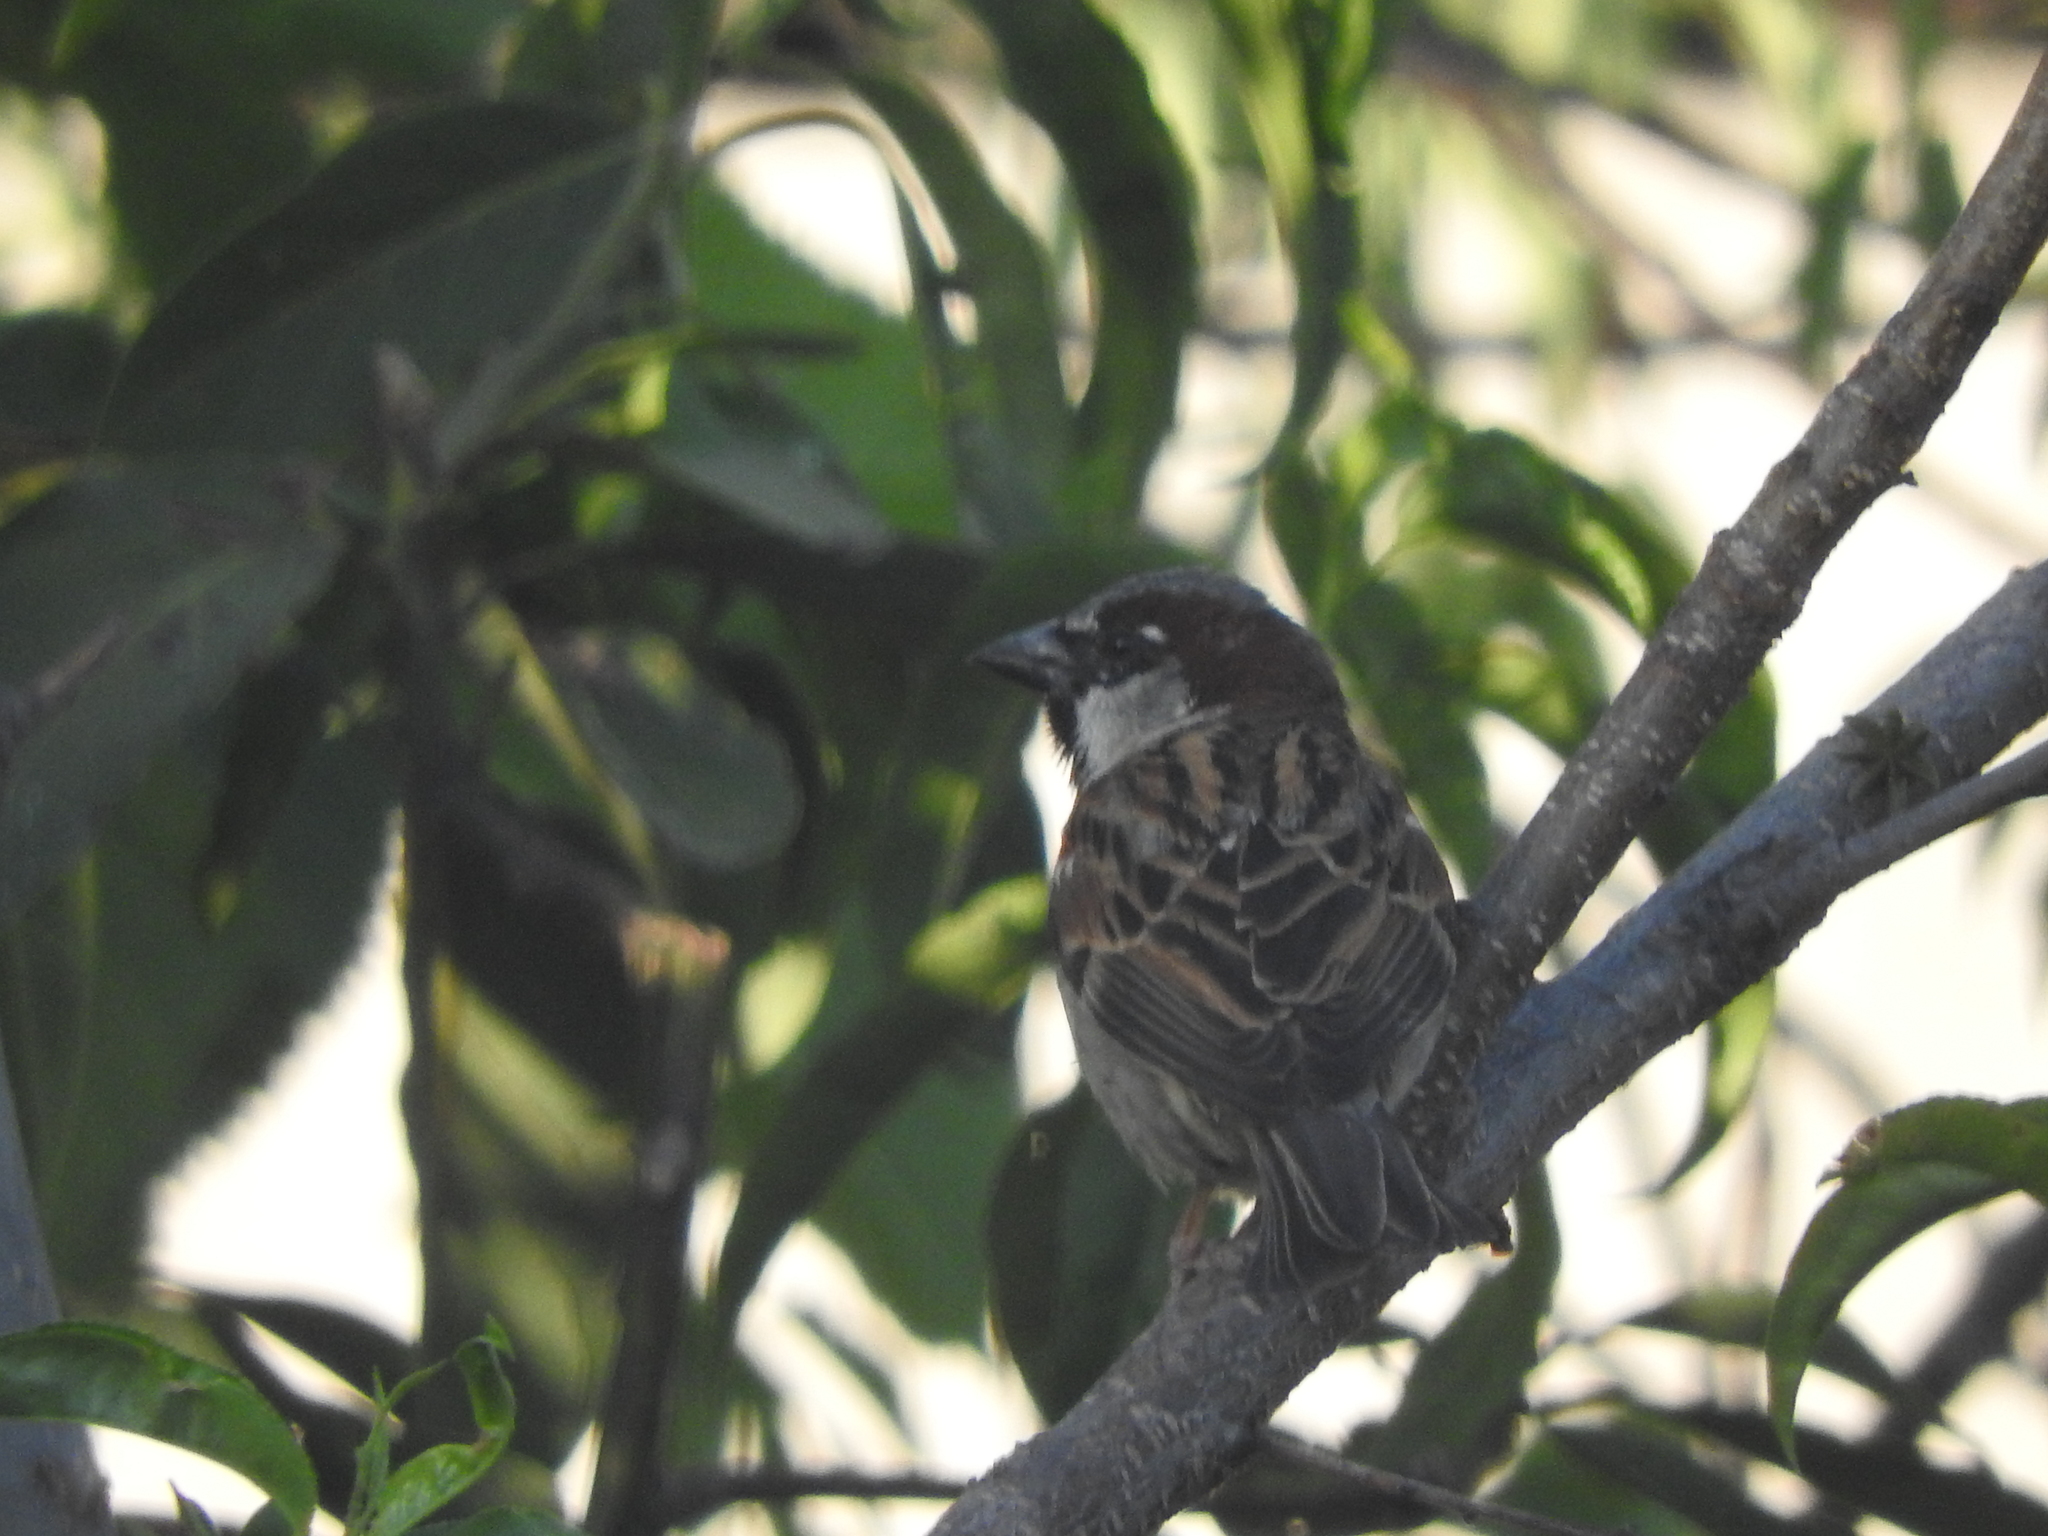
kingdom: Animalia
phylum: Chordata
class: Aves
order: Passeriformes
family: Passeridae
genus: Passer
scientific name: Passer domesticus
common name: House sparrow
